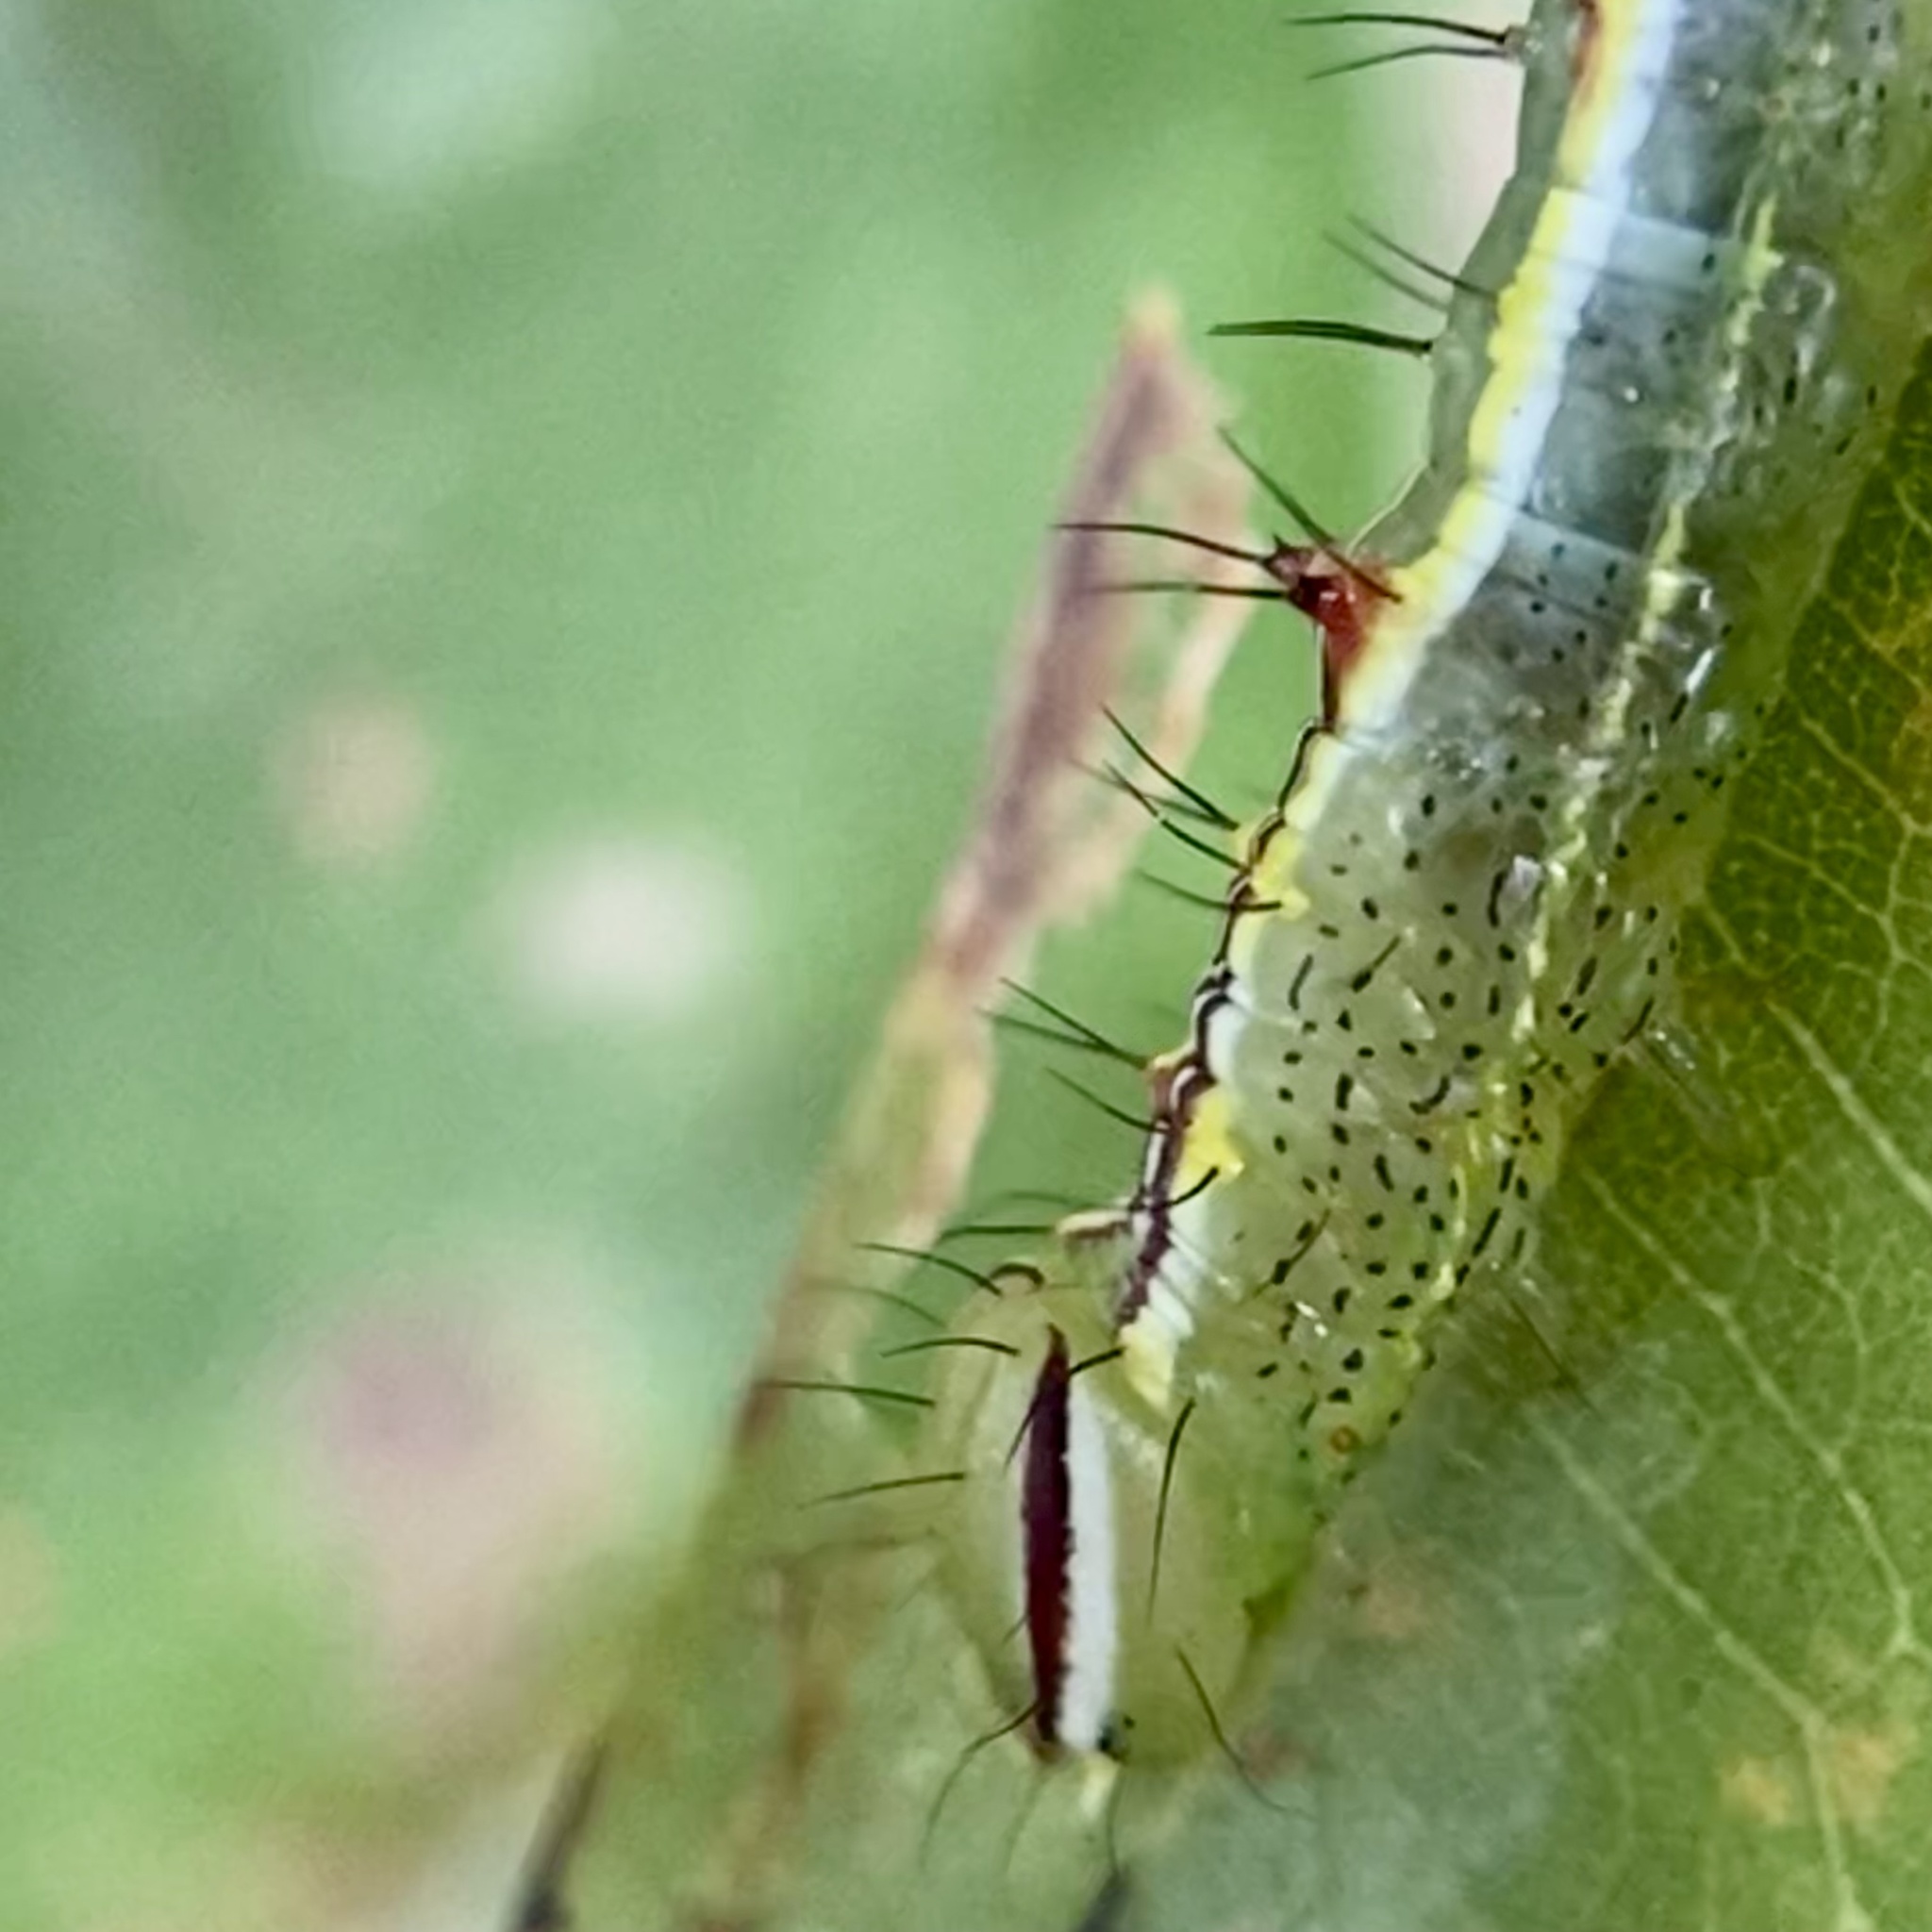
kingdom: Animalia
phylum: Arthropoda
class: Insecta
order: Lepidoptera
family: Notodontidae
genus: Lochmaeus
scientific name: Lochmaeus manteo
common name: Variable oakleaf caterpillar moth
